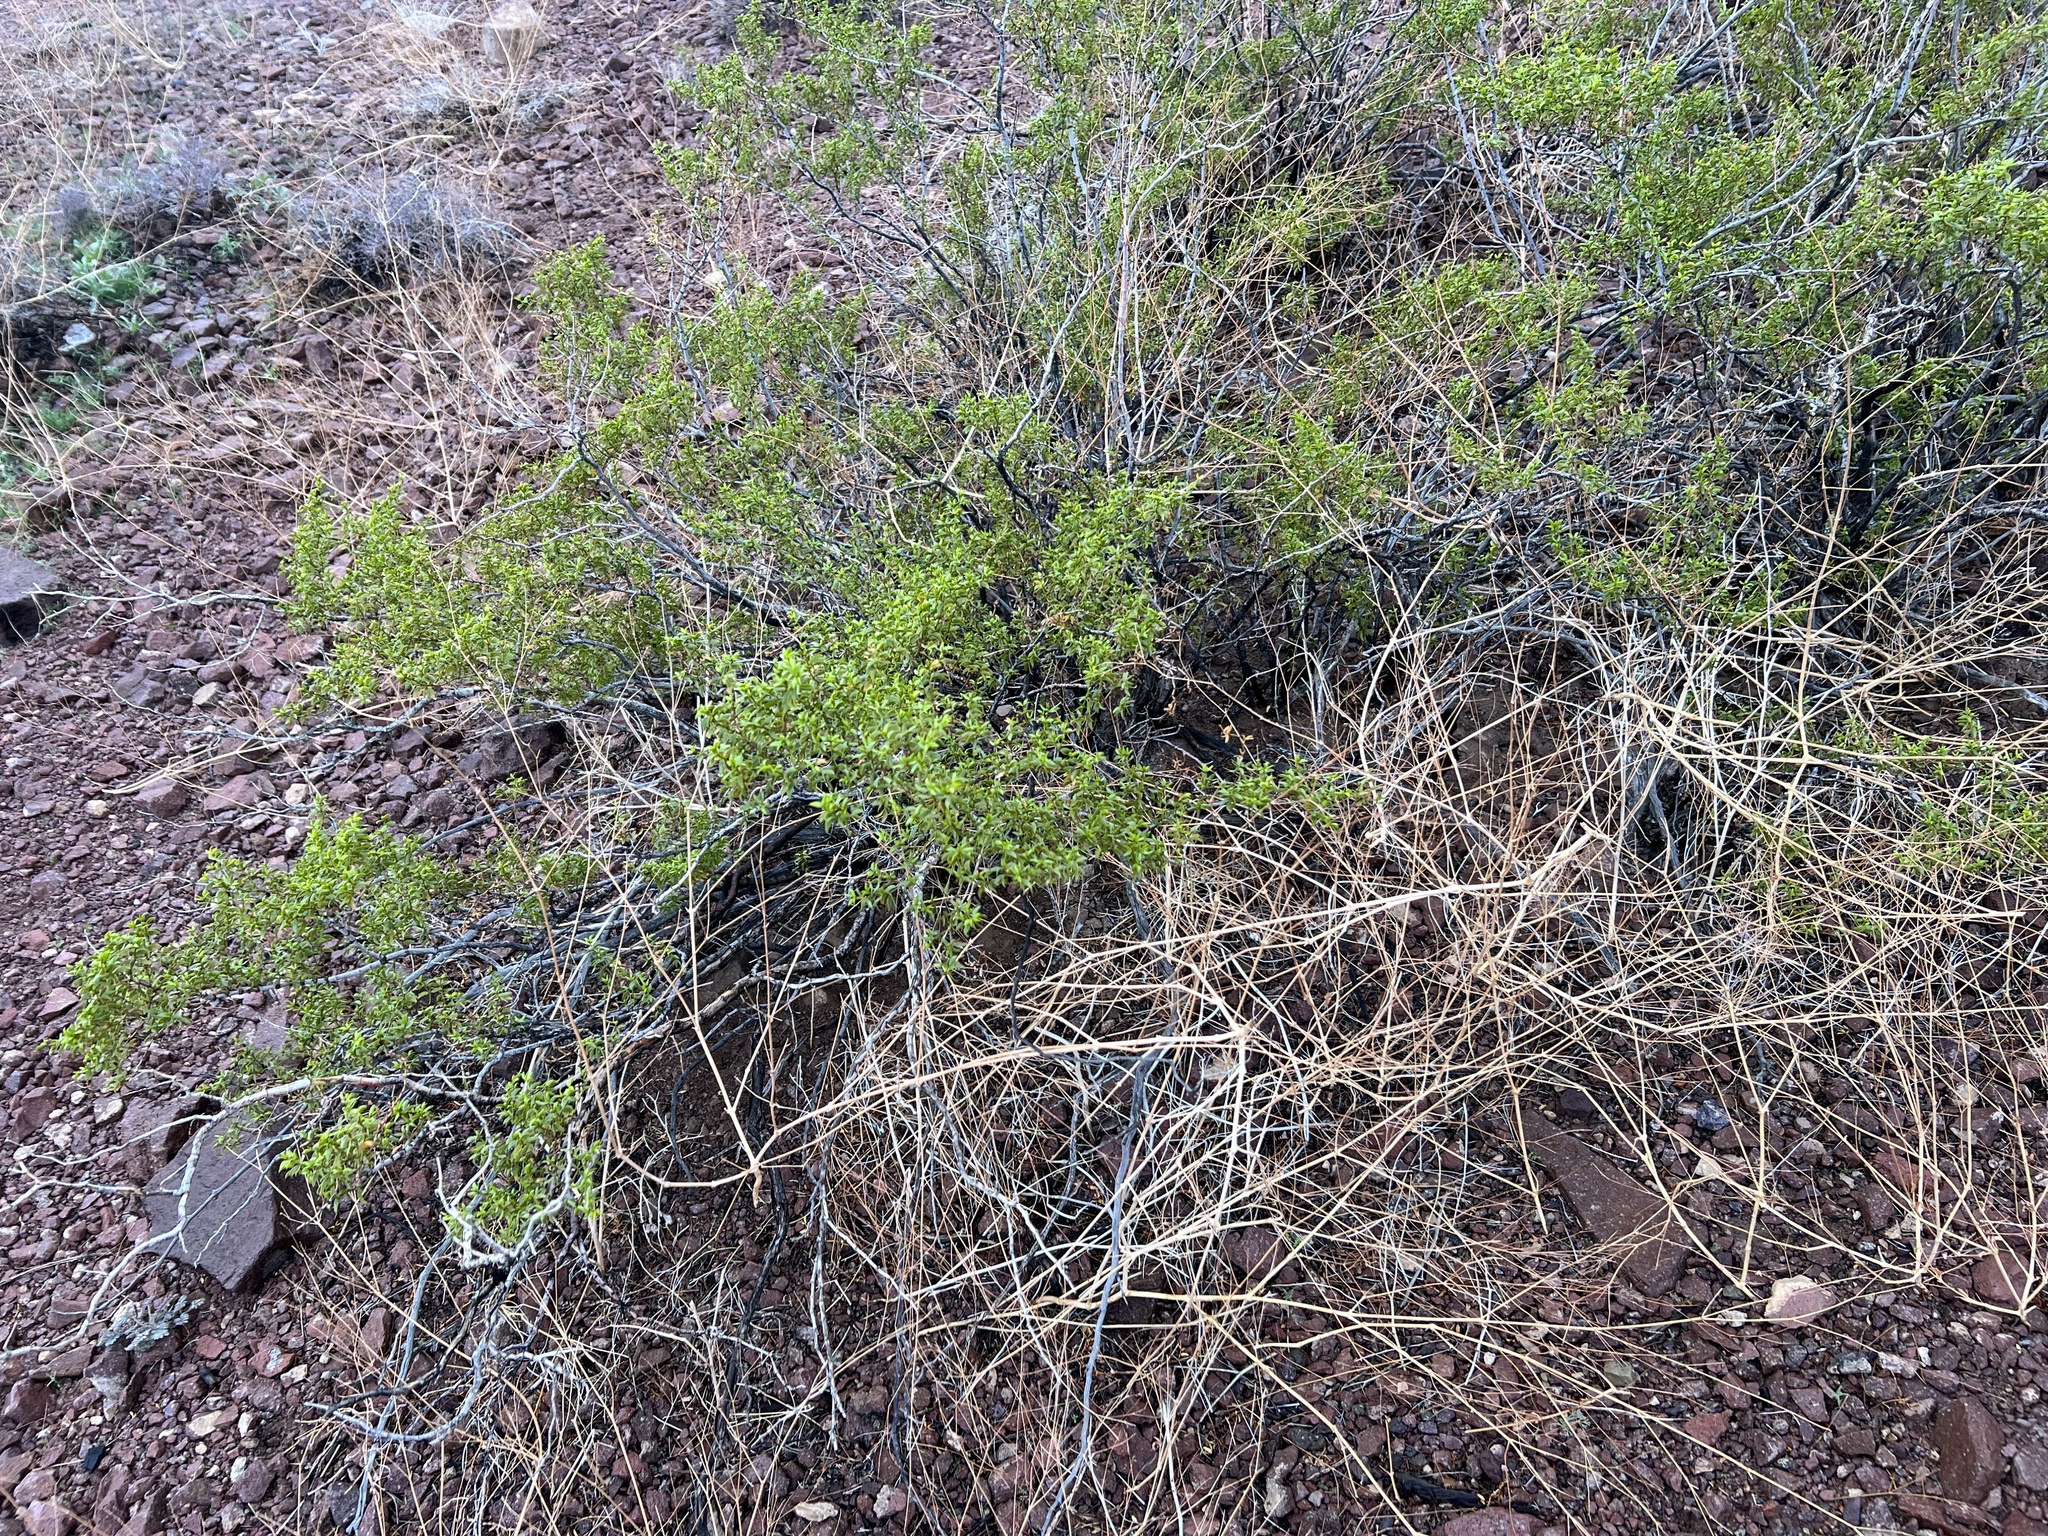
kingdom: Plantae
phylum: Tracheophyta
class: Magnoliopsida
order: Zygophyllales
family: Zygophyllaceae
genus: Larrea
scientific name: Larrea tridentata
